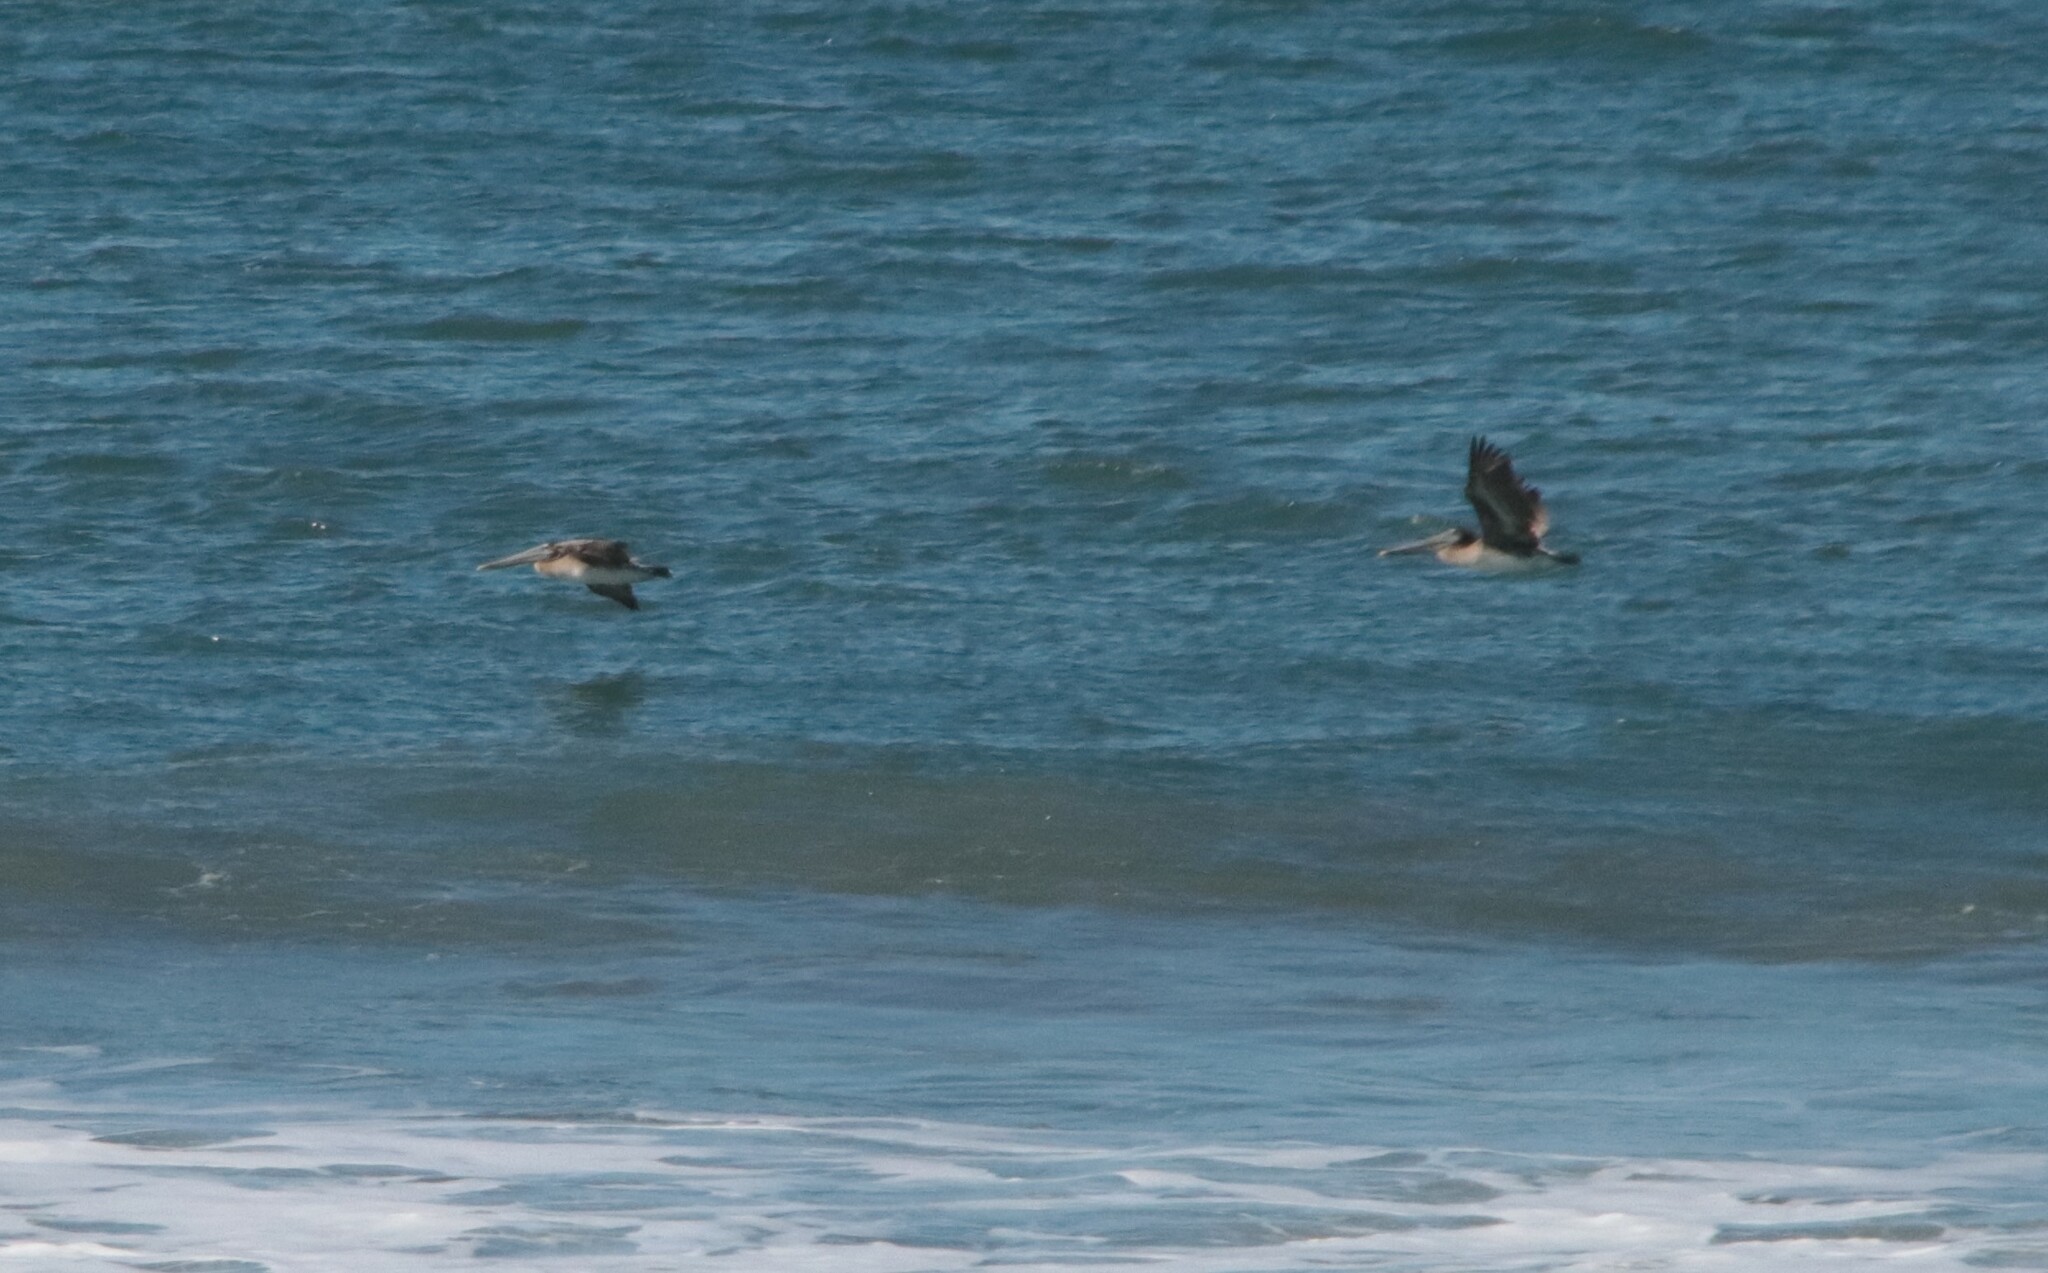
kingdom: Animalia
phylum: Chordata
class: Aves
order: Pelecaniformes
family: Pelecanidae
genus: Pelecanus
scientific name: Pelecanus occidentalis
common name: Brown pelican
